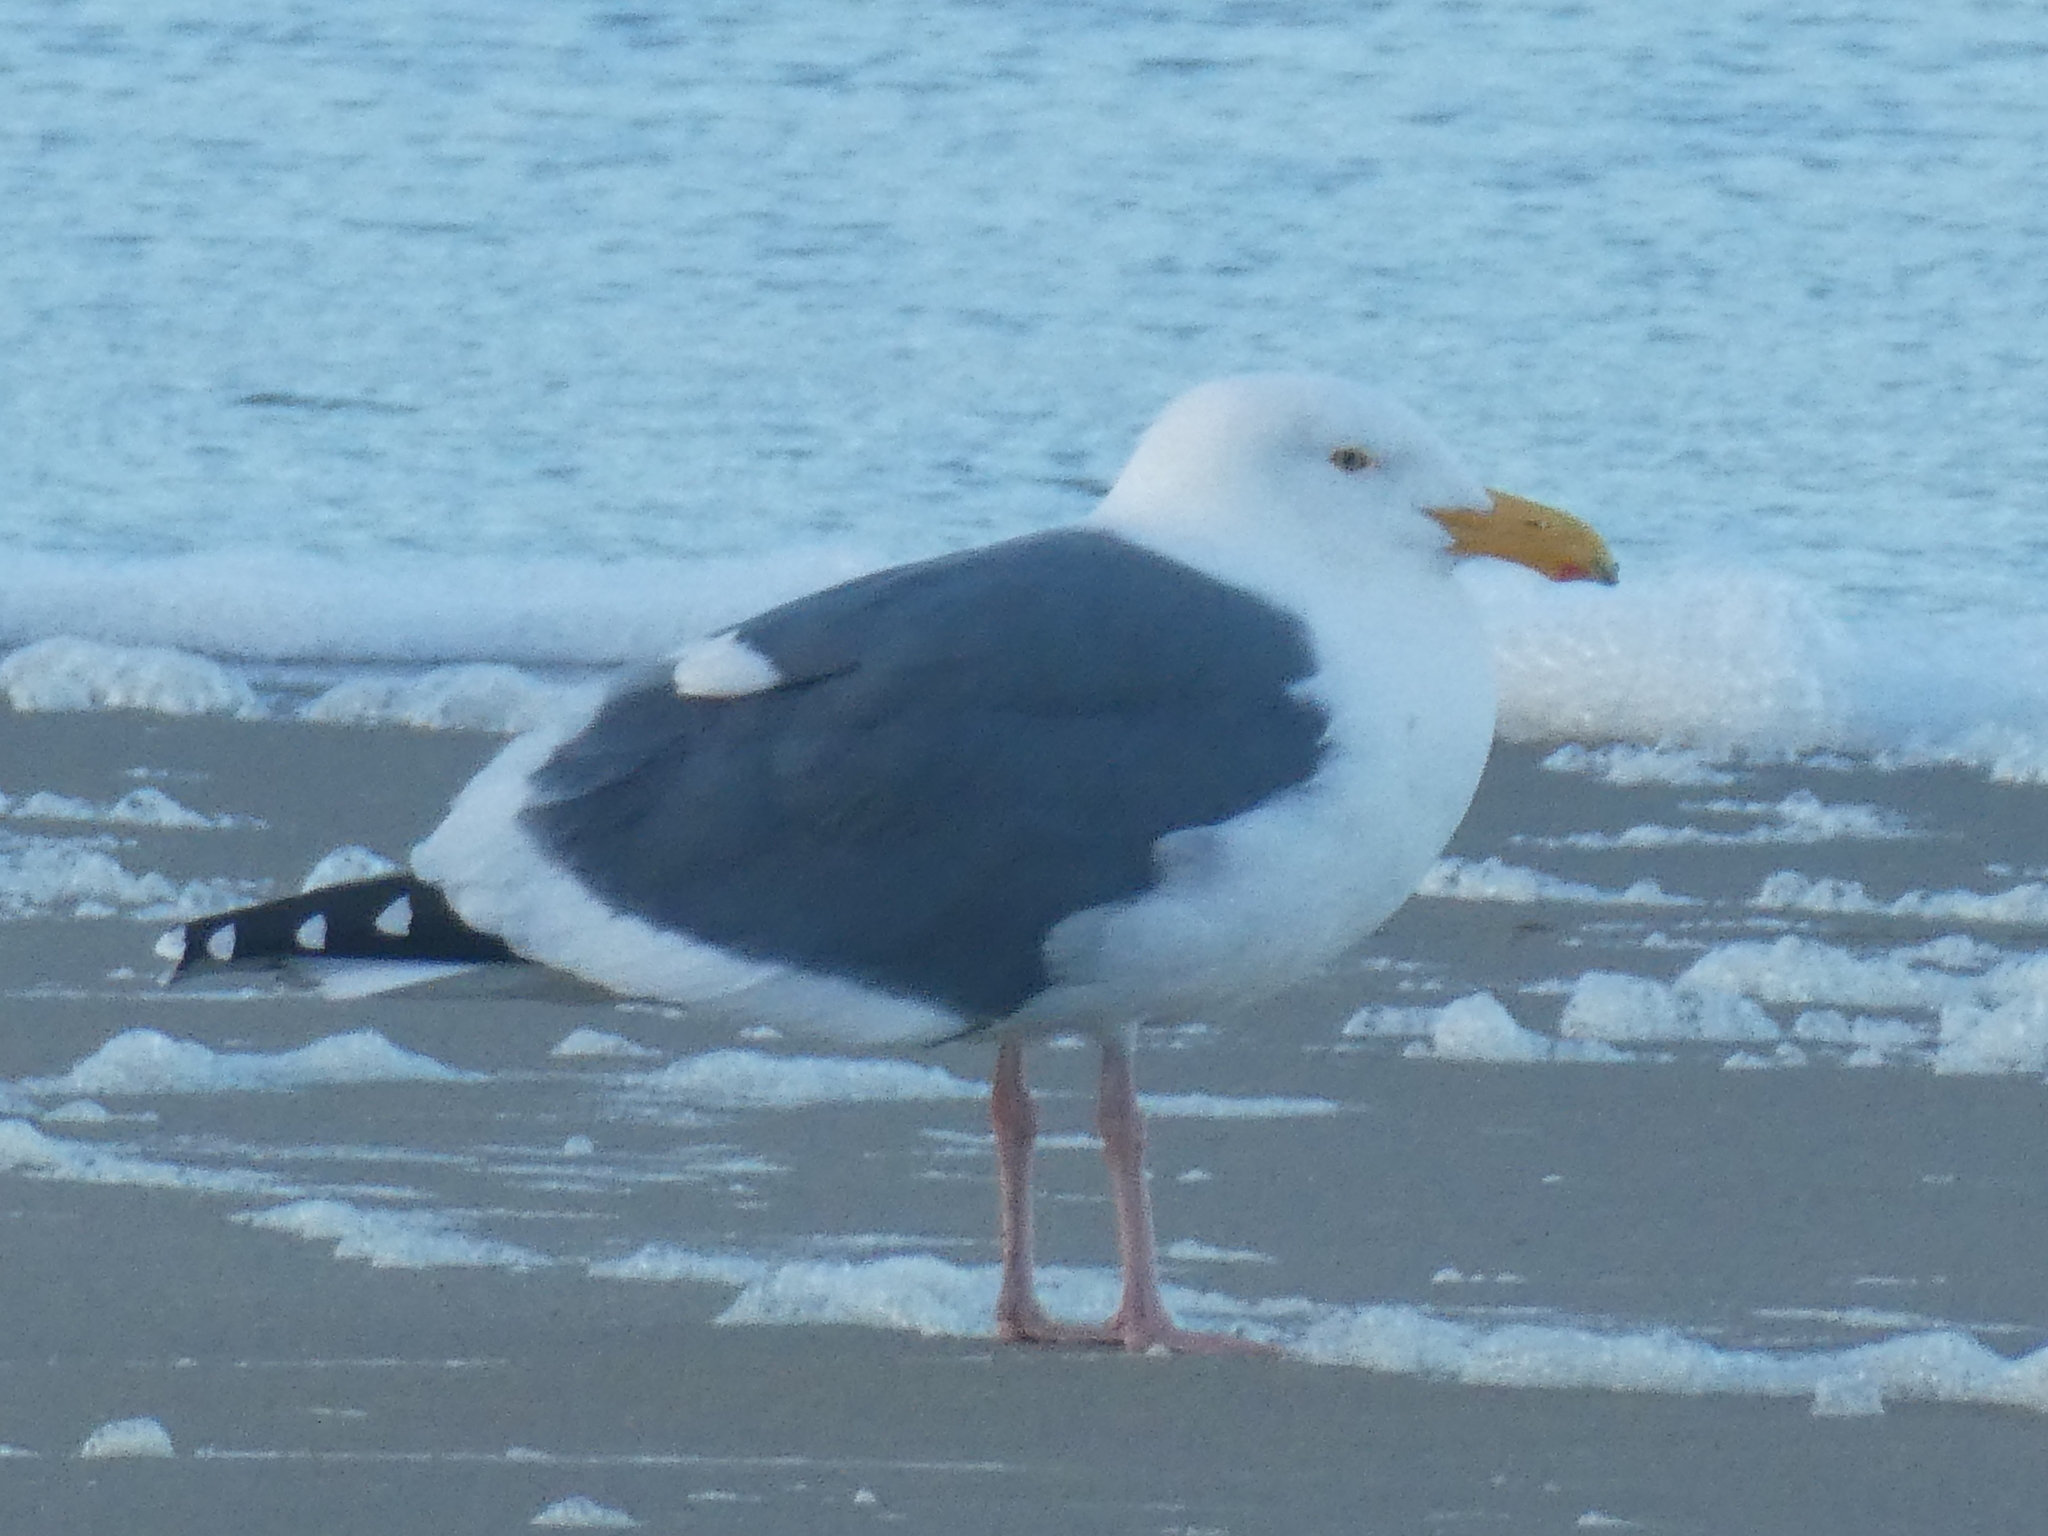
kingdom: Animalia
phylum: Chordata
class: Aves
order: Charadriiformes
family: Laridae
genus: Larus
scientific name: Larus occidentalis
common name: Western gull
